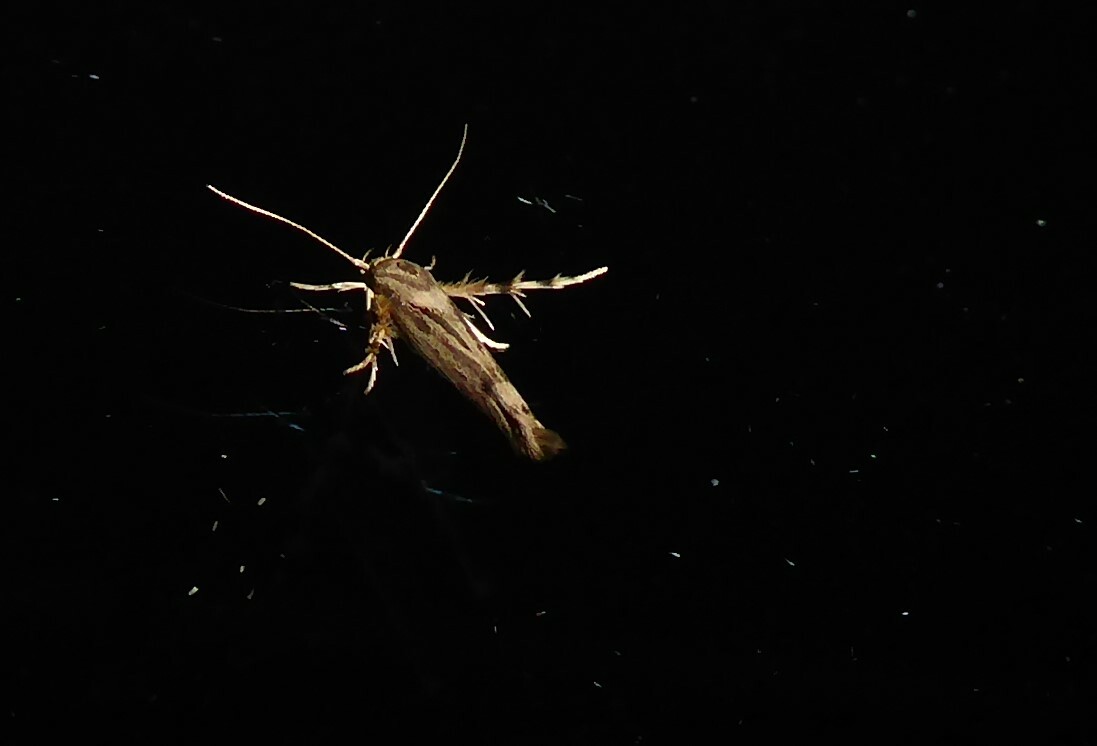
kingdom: Animalia
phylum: Arthropoda
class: Insecta
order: Lepidoptera
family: Stathmopodidae
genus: Stathmopoda
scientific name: Stathmopoda plumbiflua
